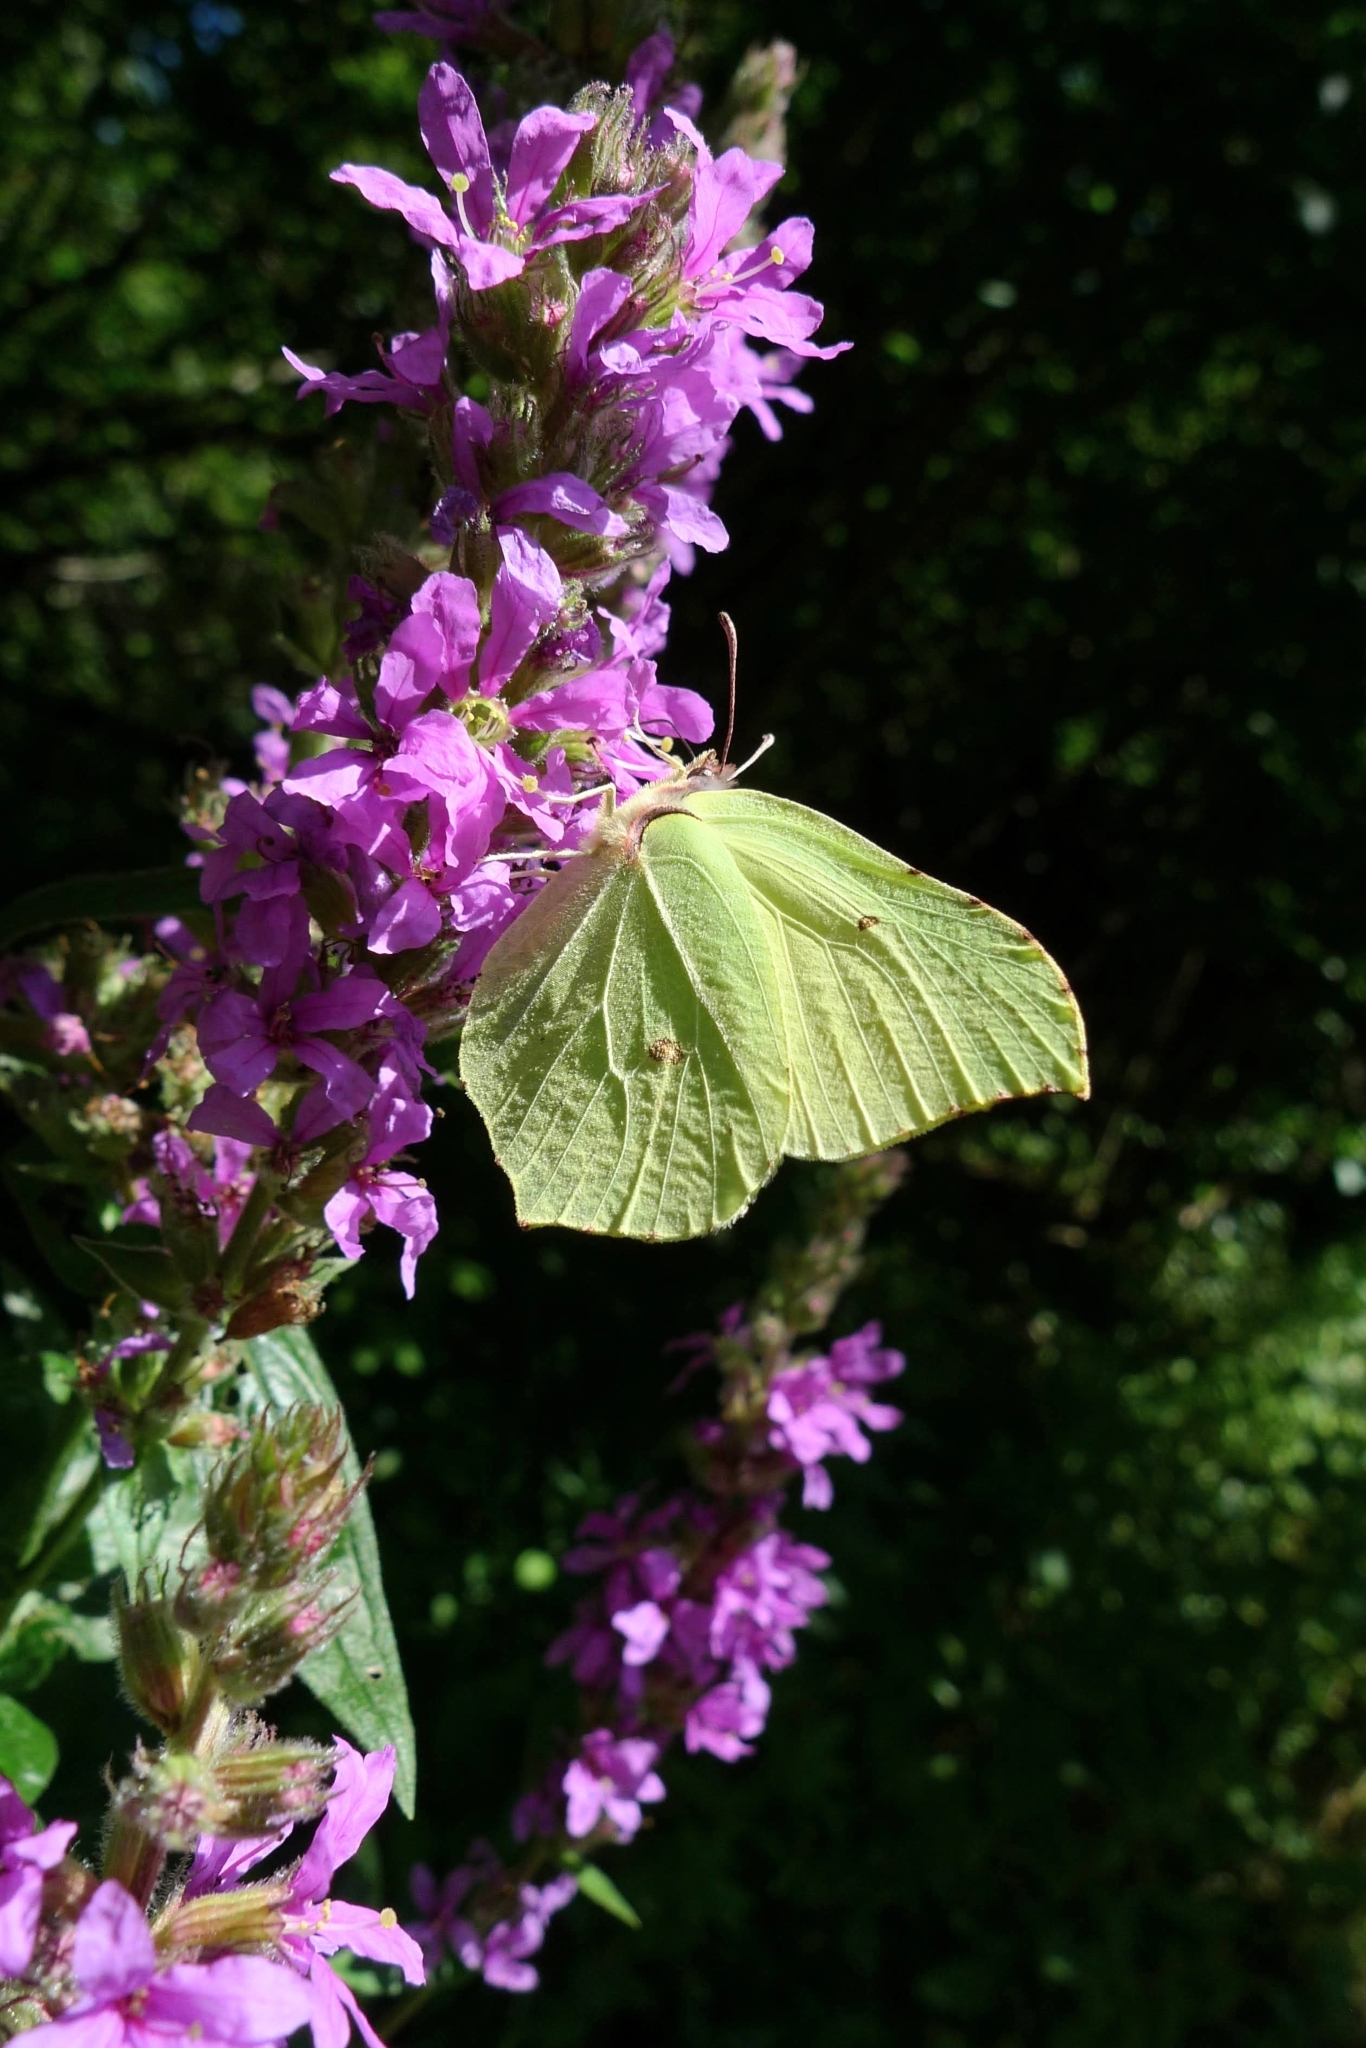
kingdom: Animalia
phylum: Arthropoda
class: Insecta
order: Lepidoptera
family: Pieridae
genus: Gonepteryx
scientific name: Gonepteryx rhamni
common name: Brimstone
